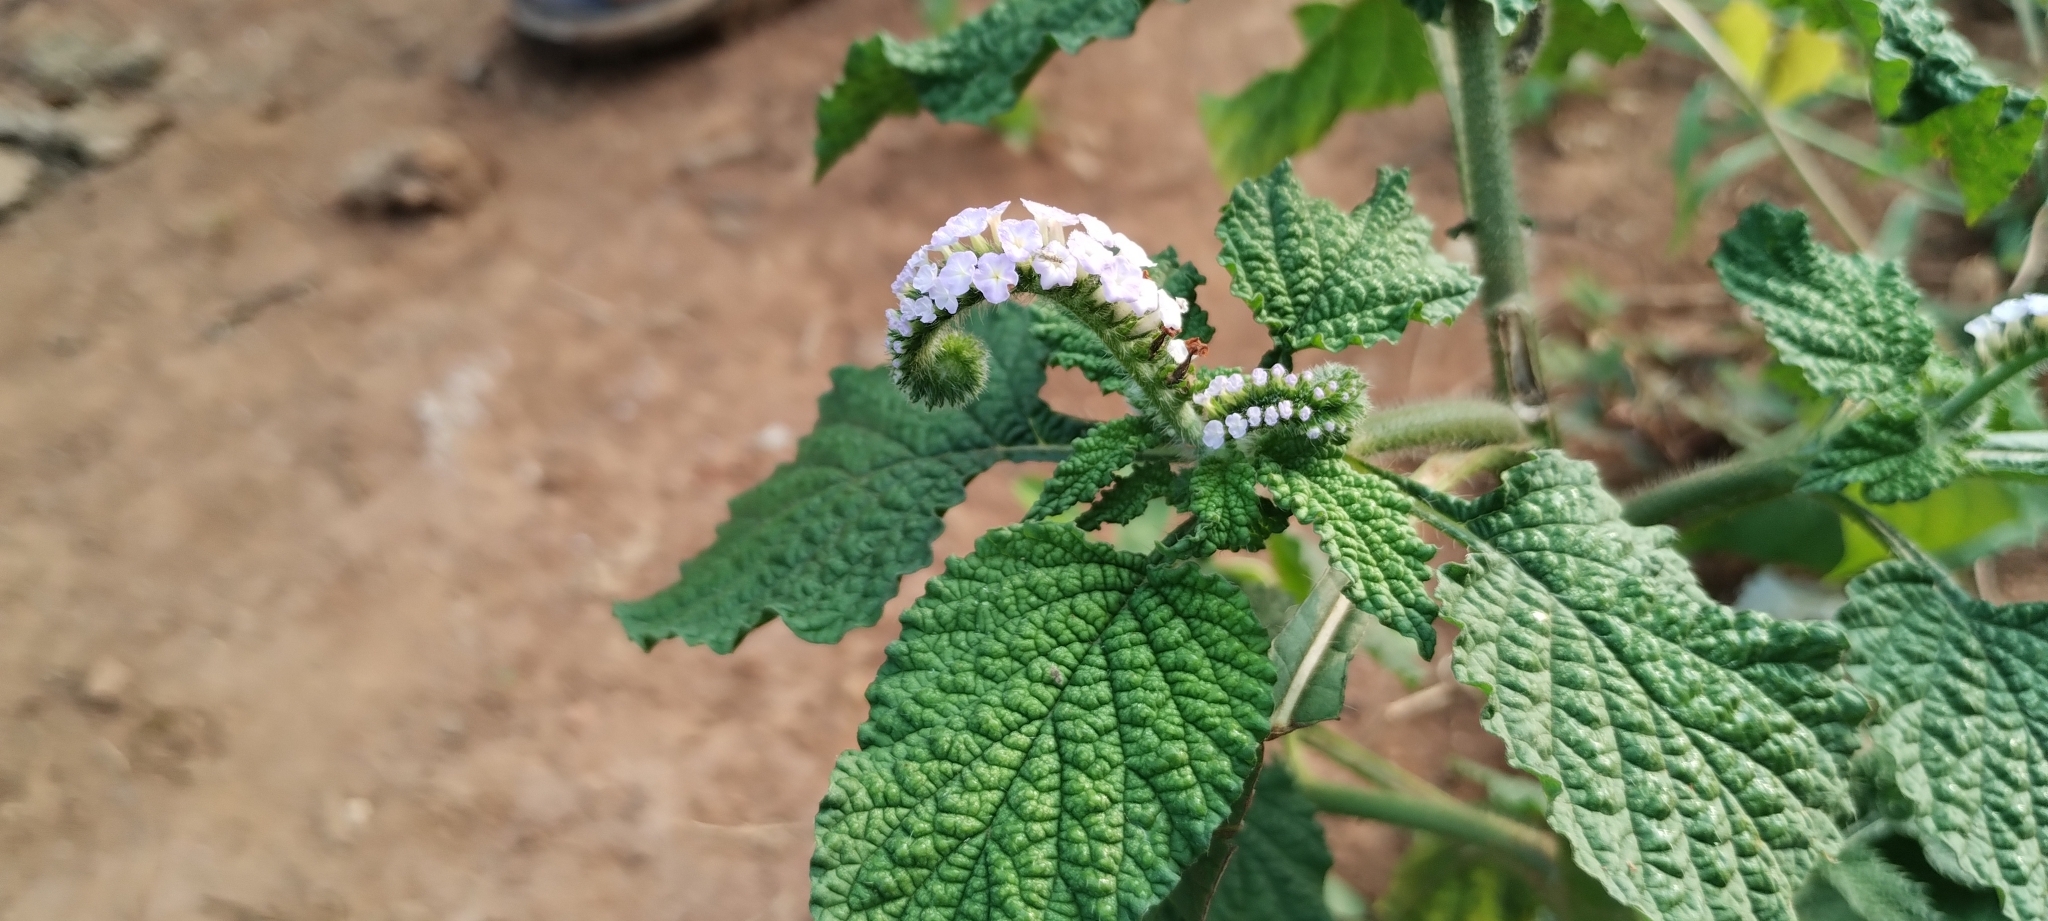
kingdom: Plantae
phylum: Tracheophyta
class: Magnoliopsida
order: Boraginales
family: Heliotropiaceae
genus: Heliotropium
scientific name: Heliotropium indicum
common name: Indian heliotrope
